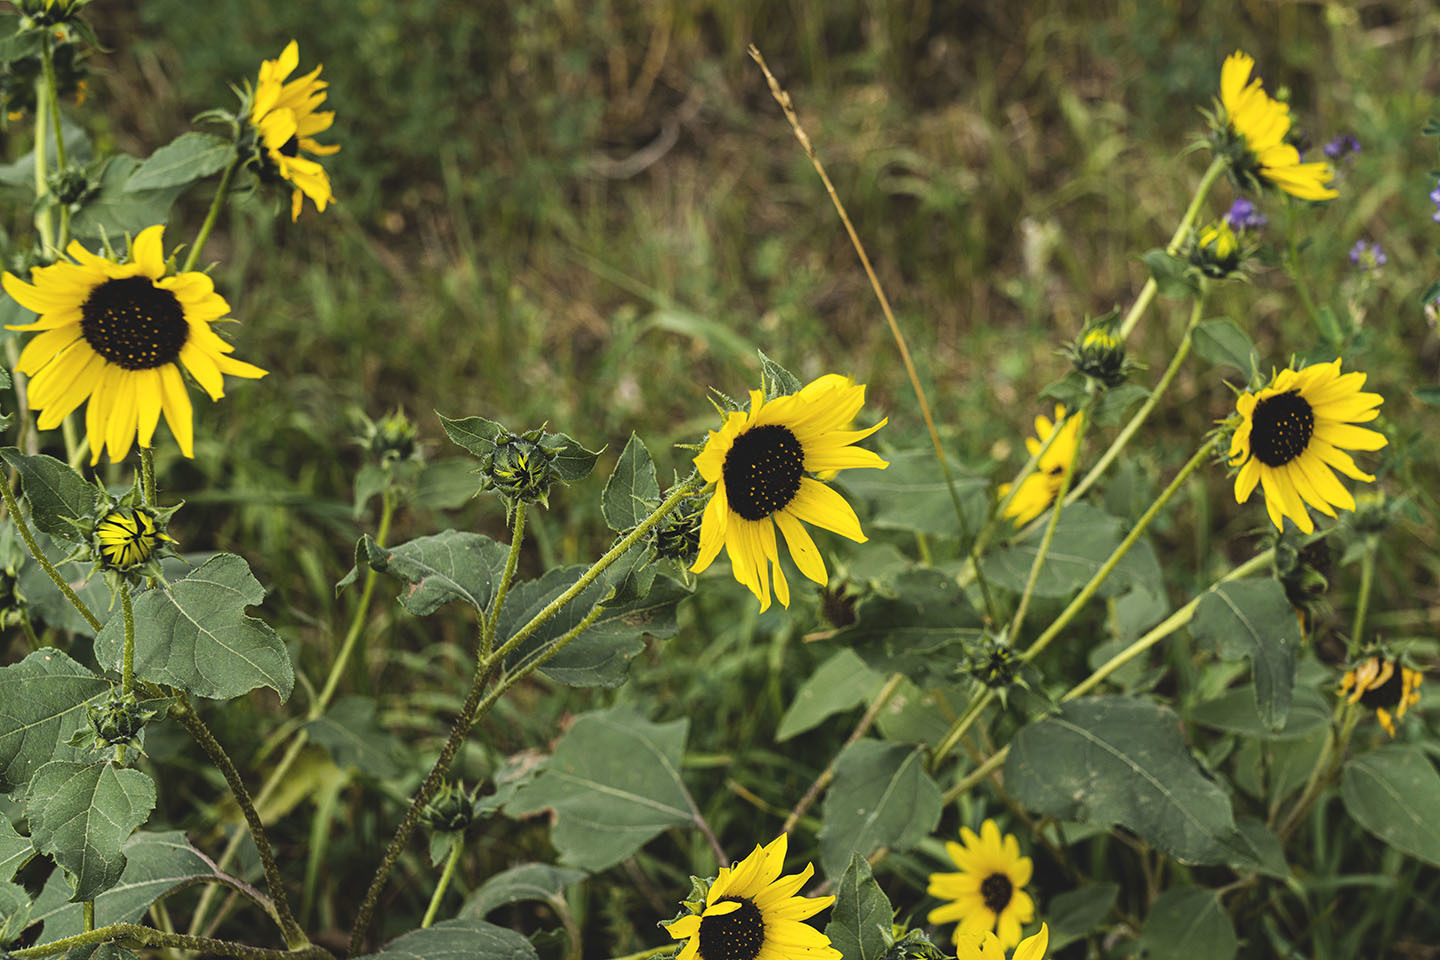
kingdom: Plantae
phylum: Tracheophyta
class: Magnoliopsida
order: Asterales
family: Asteraceae
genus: Helianthus
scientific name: Helianthus petiolaris
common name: Lesser sunflower
